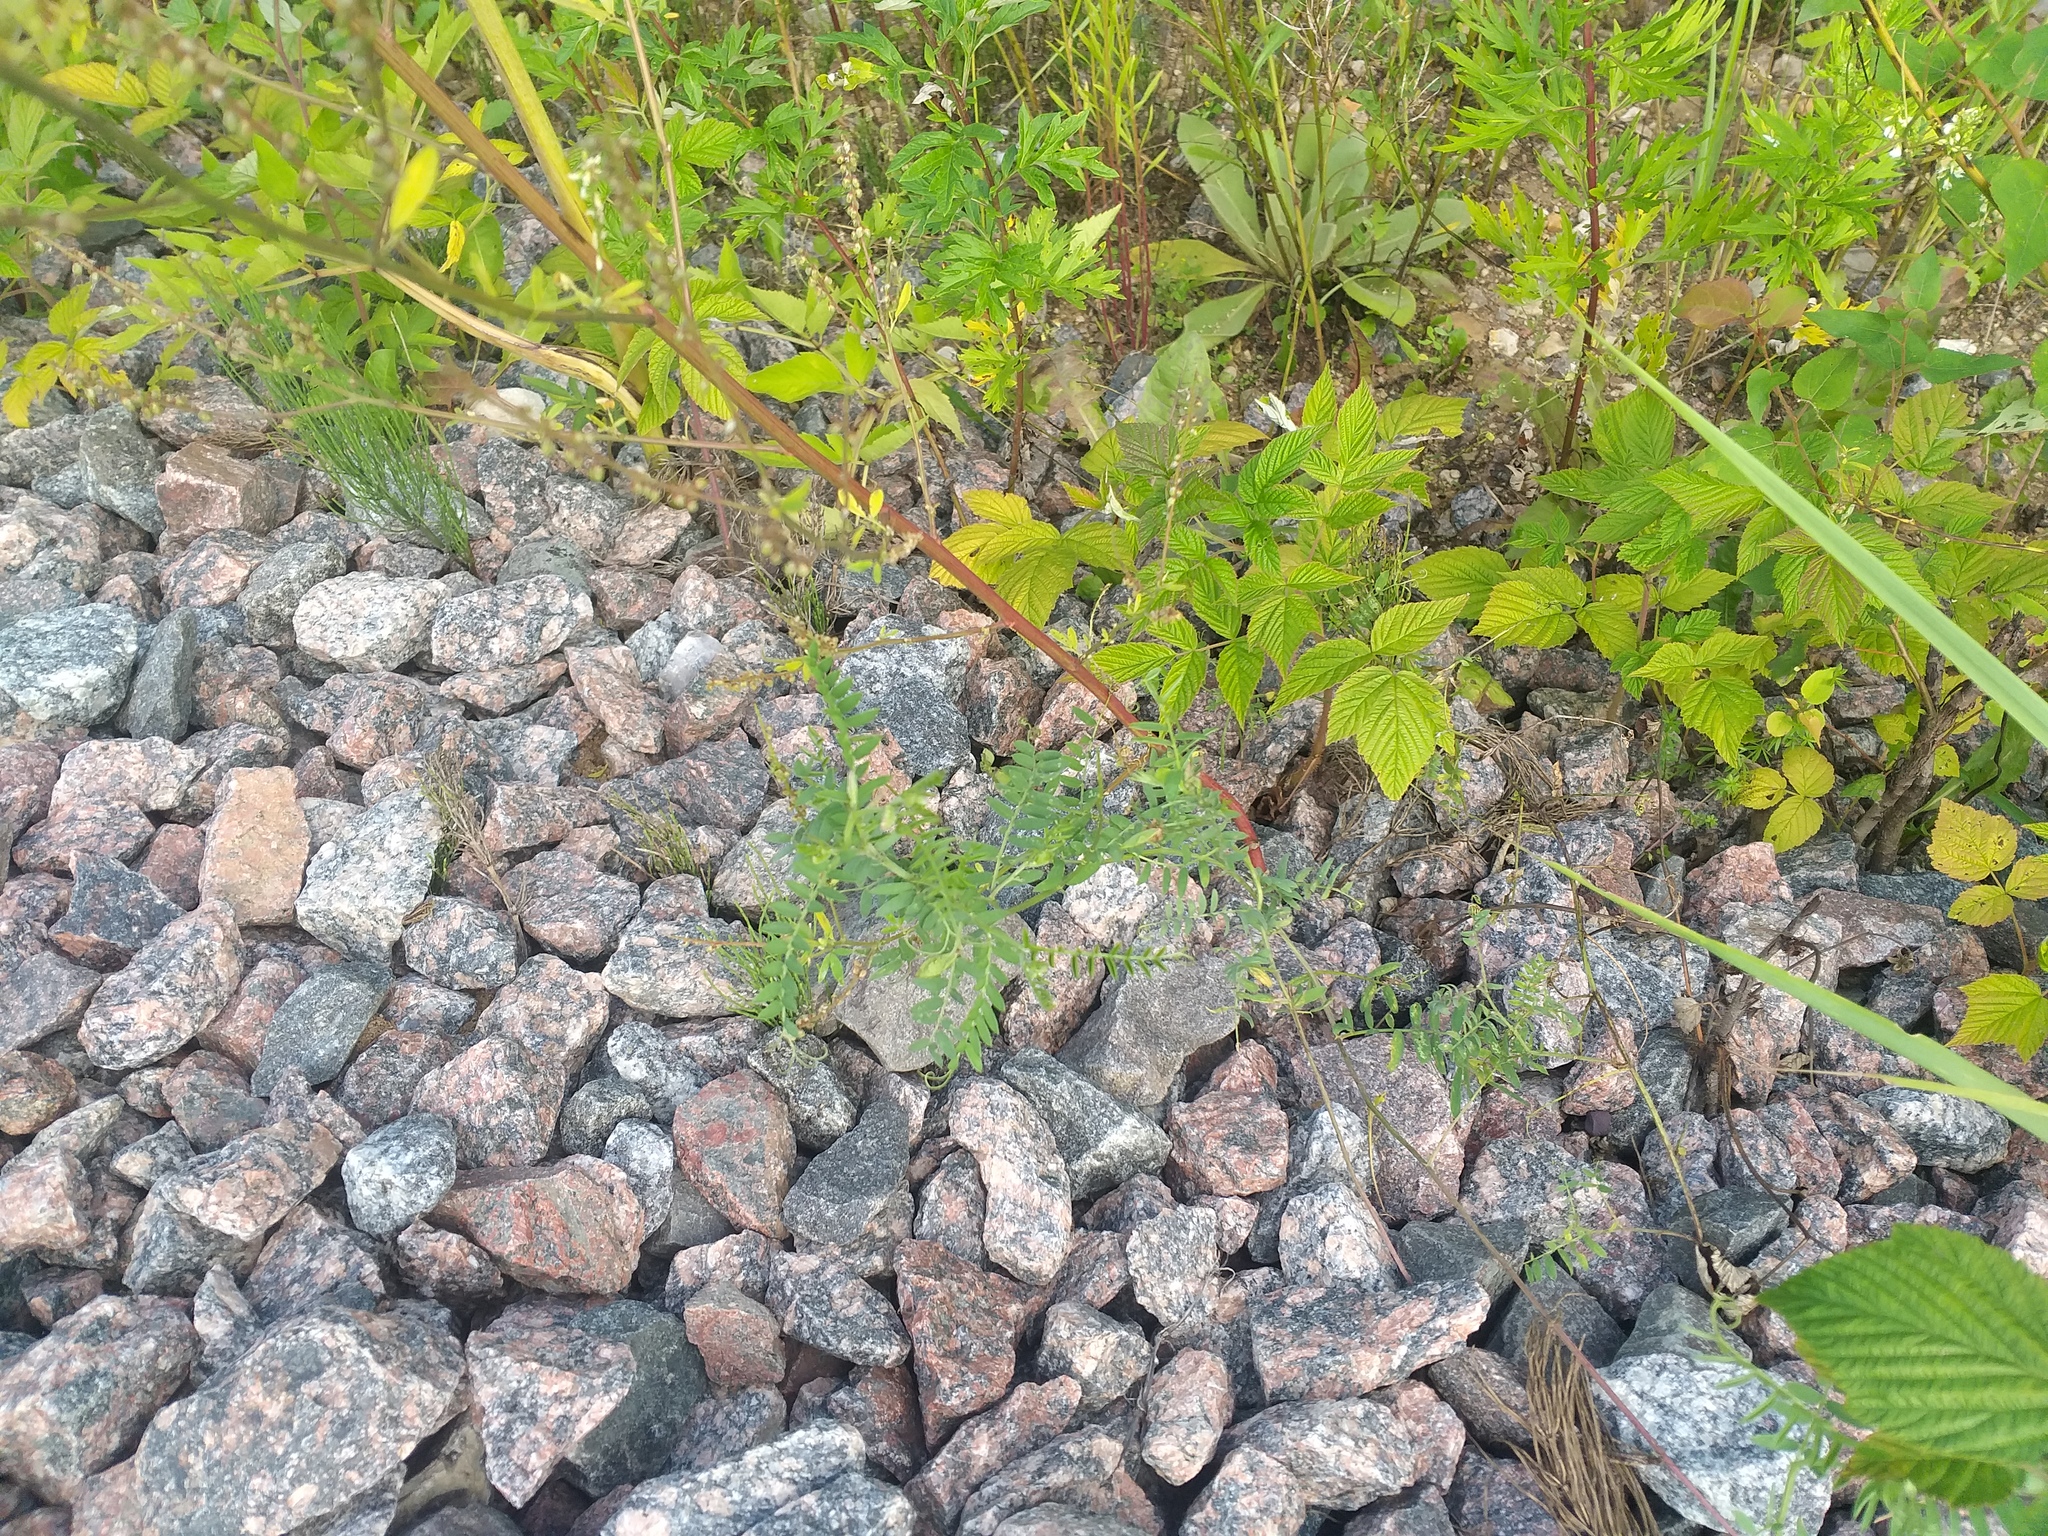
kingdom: Plantae
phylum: Tracheophyta
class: Magnoliopsida
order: Fabales
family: Fabaceae
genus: Vicia
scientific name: Vicia cracca
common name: Bird vetch
